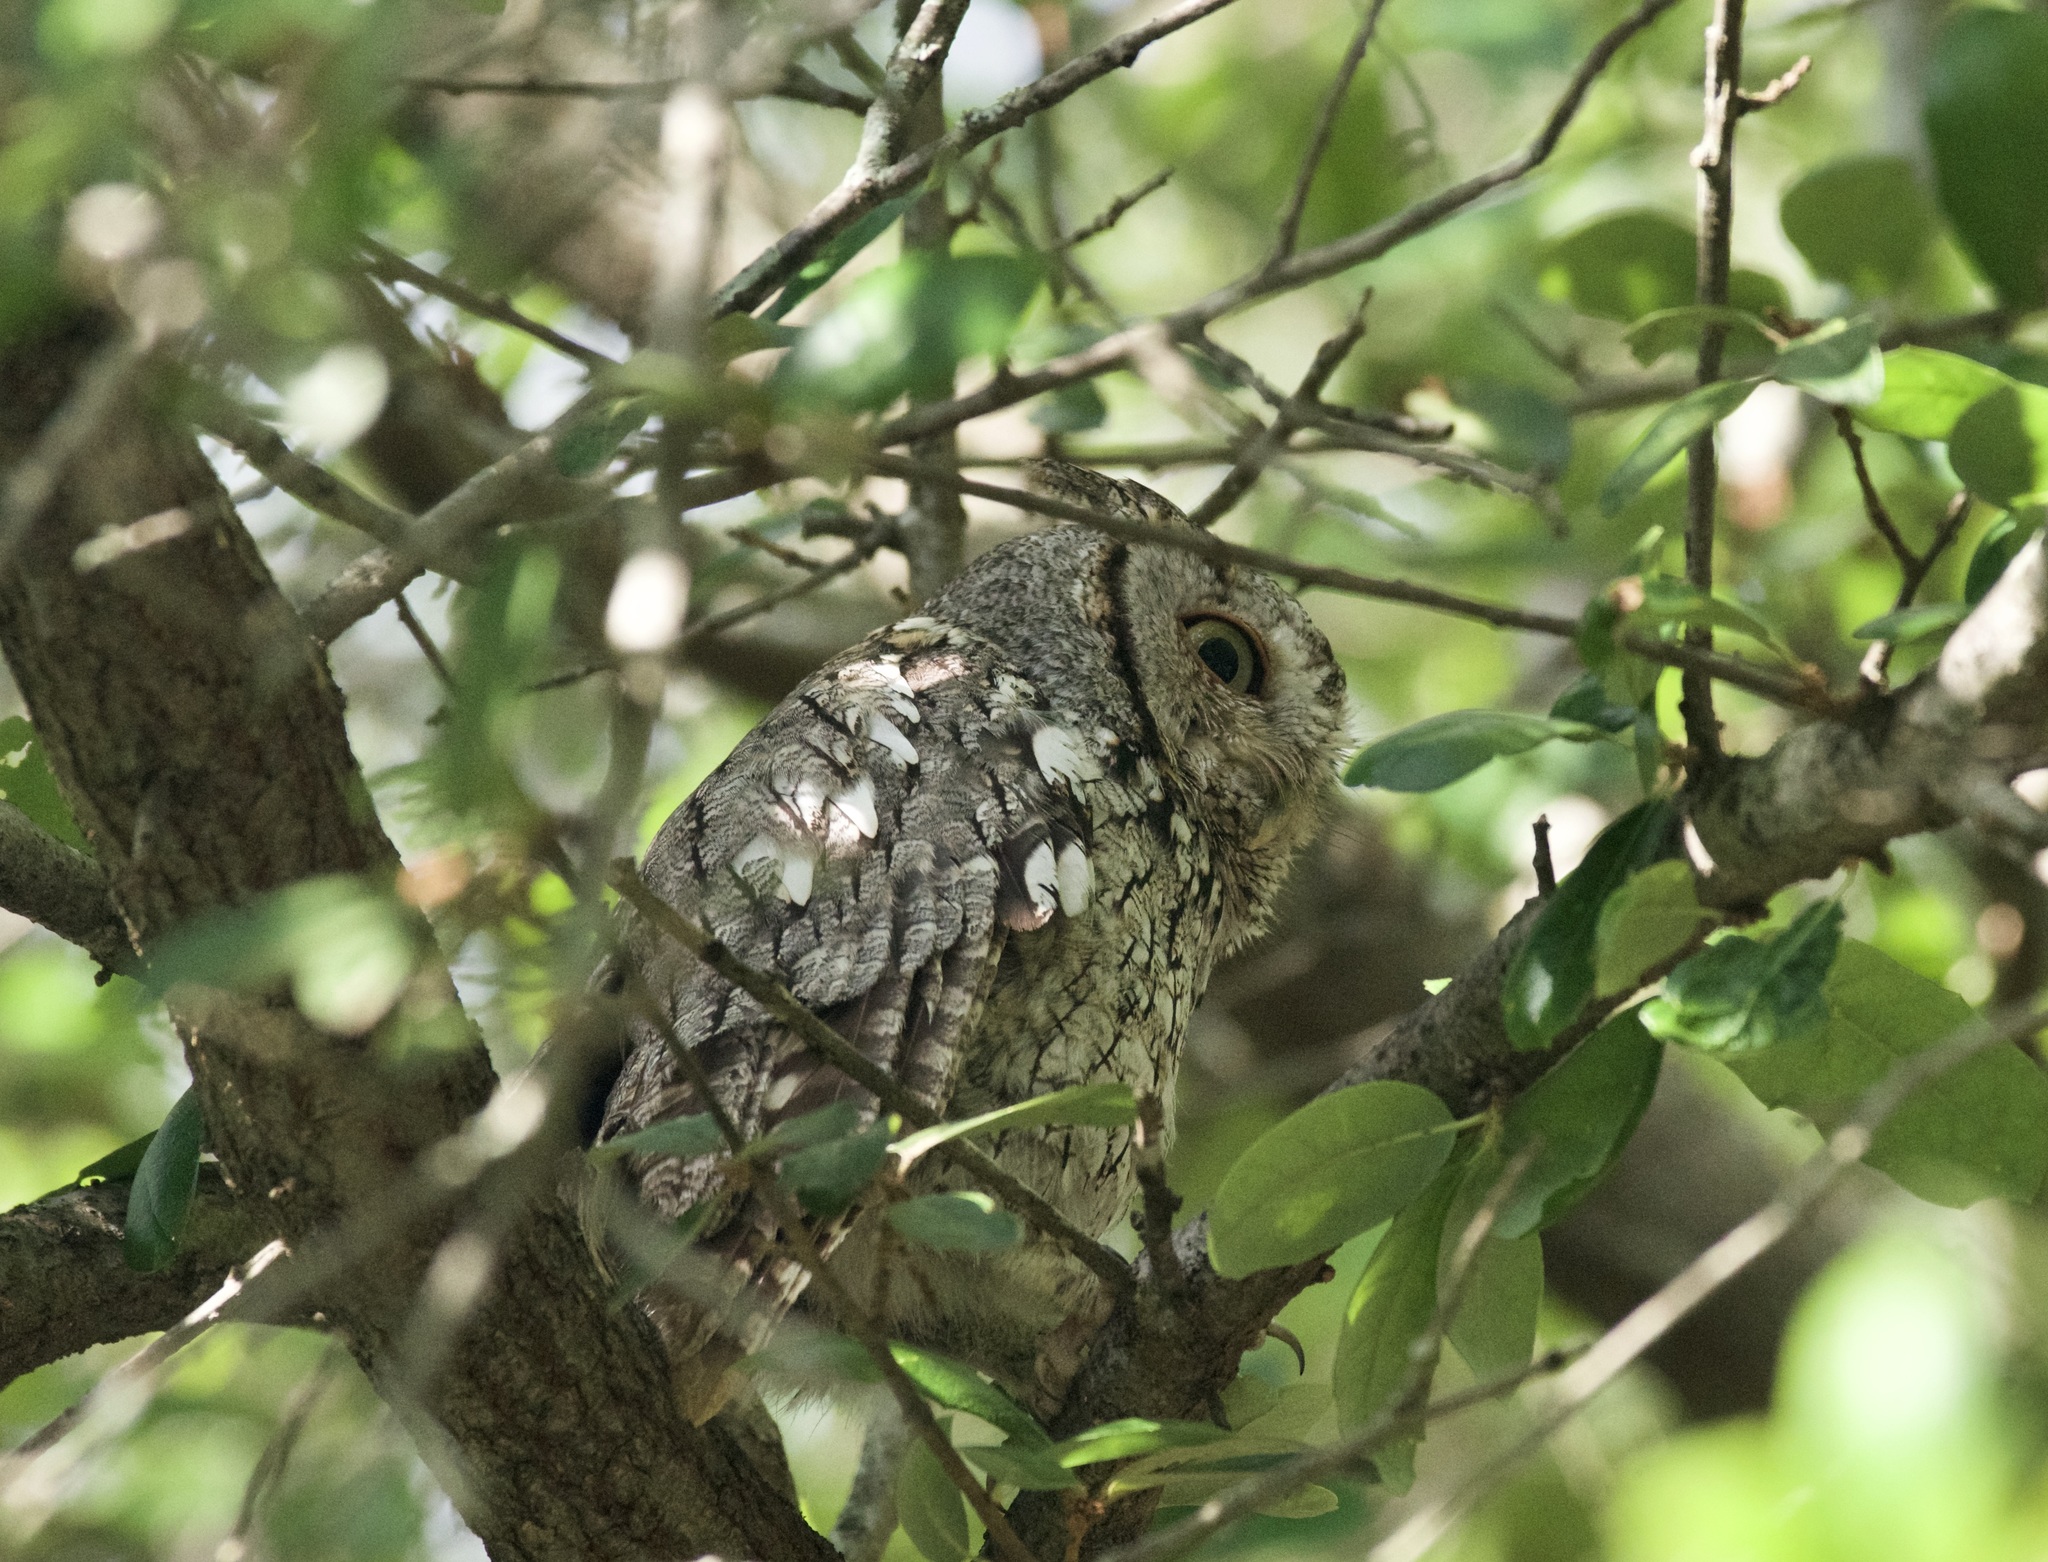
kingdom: Animalia
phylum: Chordata
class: Aves
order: Strigiformes
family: Strigidae
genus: Megascops
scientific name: Megascops asio
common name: Eastern screech-owl
